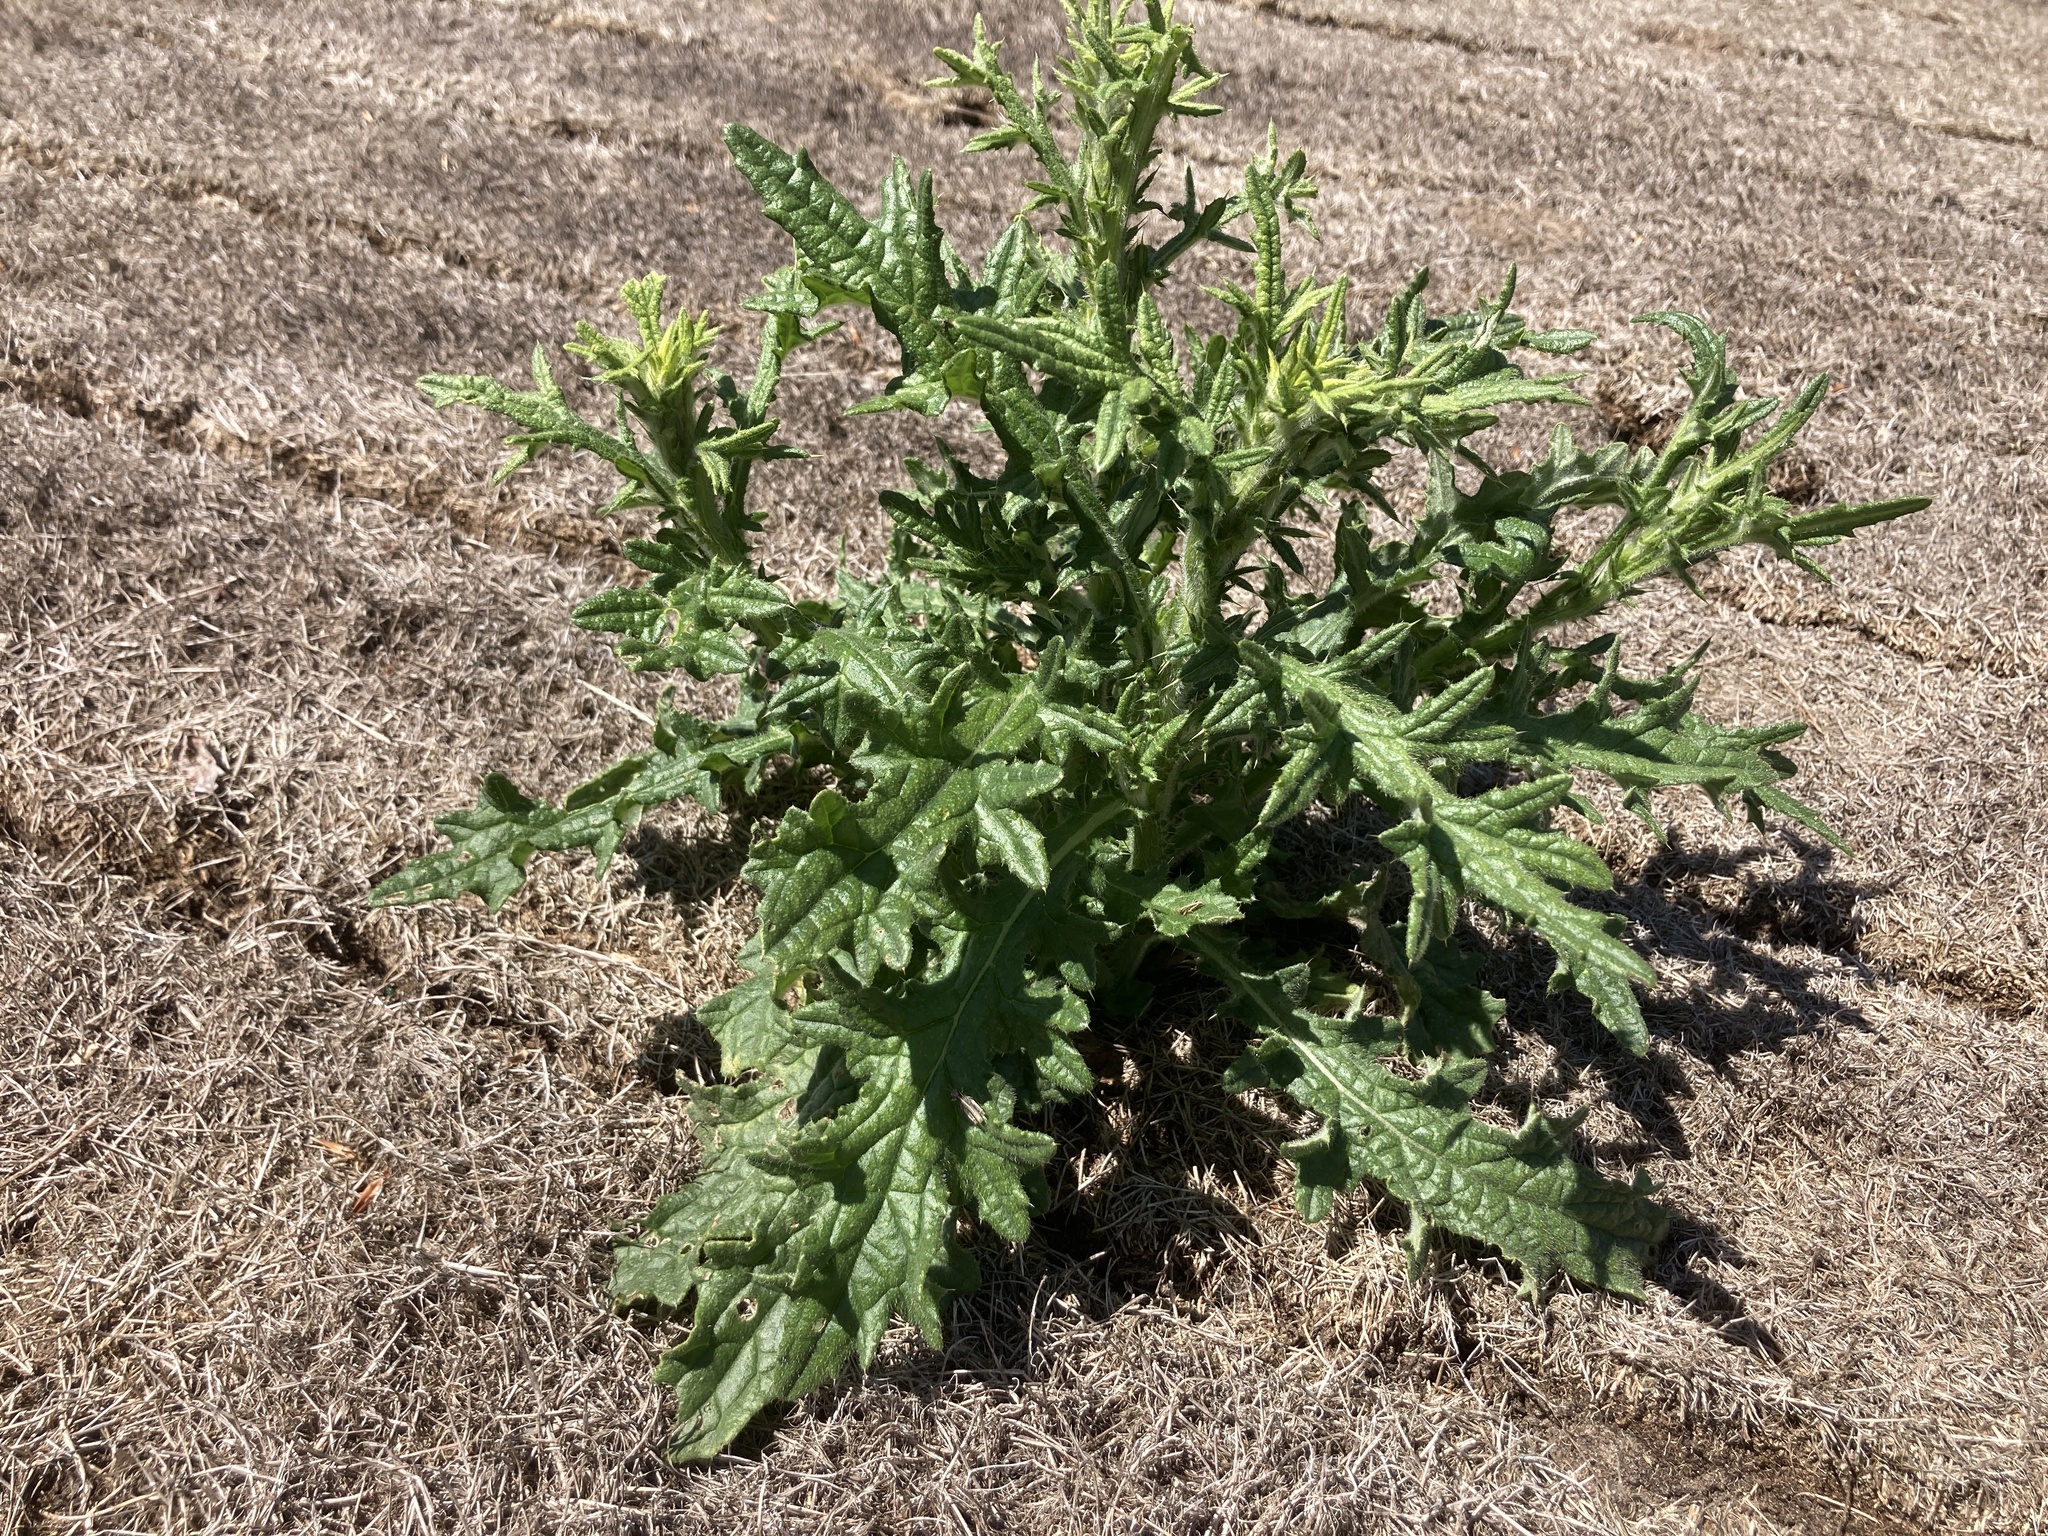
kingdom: Plantae
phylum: Tracheophyta
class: Magnoliopsida
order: Asterales
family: Asteraceae
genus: Cirsium
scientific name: Cirsium vulgare
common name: Bull thistle
